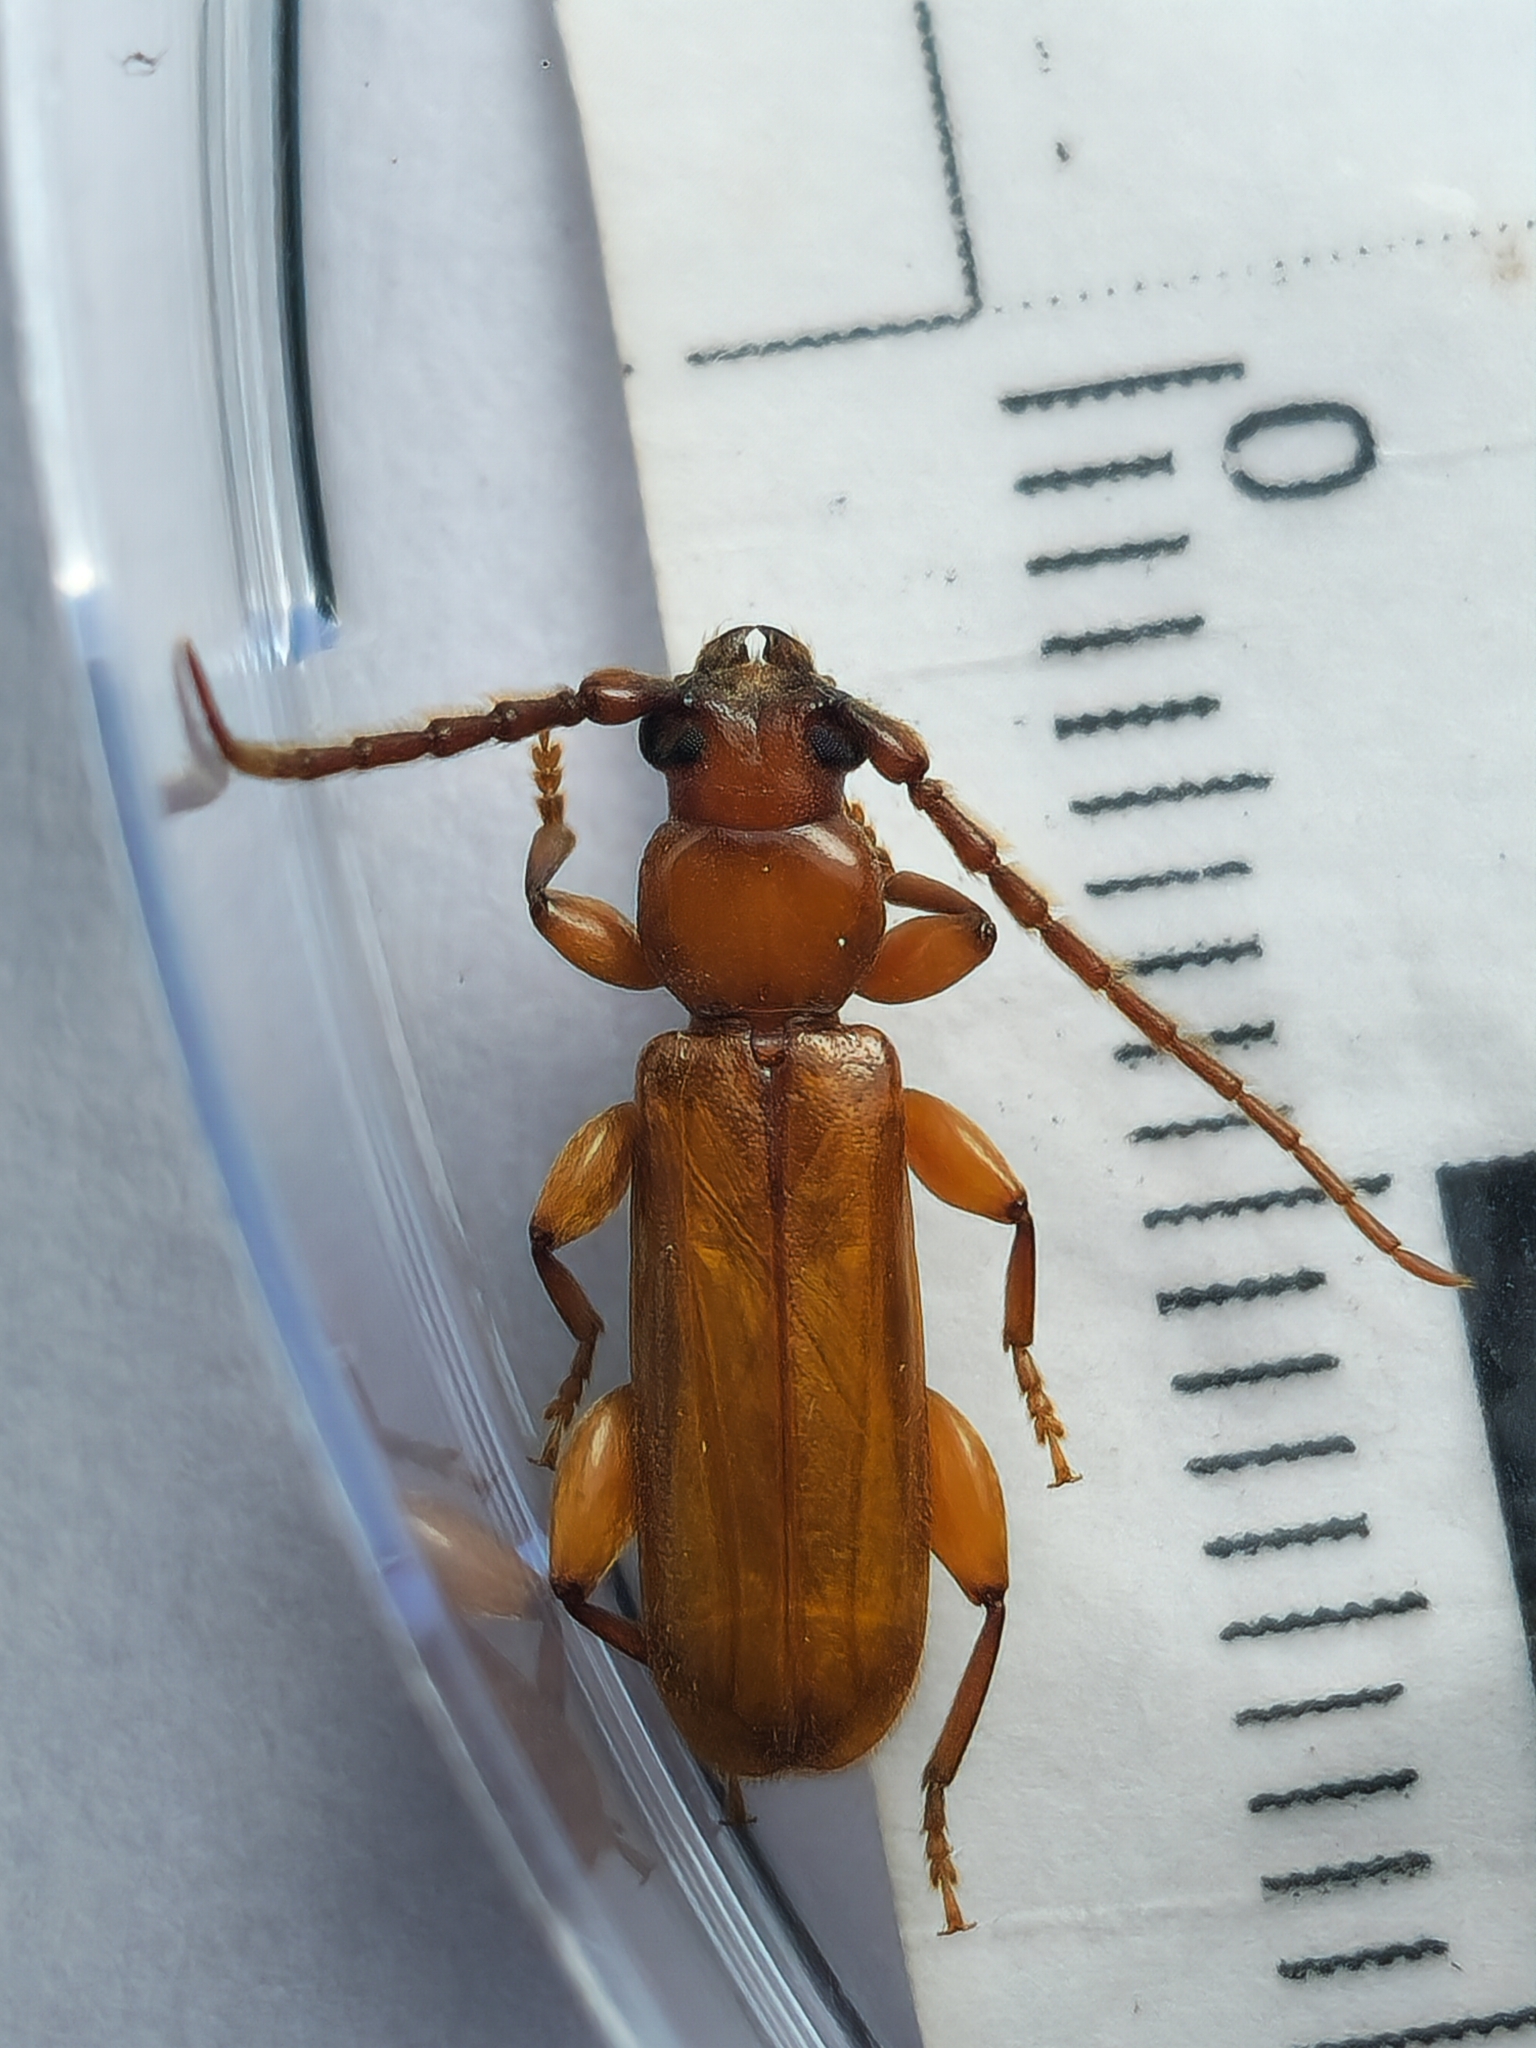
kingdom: Animalia
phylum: Arthropoda
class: Insecta
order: Coleoptera
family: Cerambycidae
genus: Smodicum
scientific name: Smodicum dinellii
